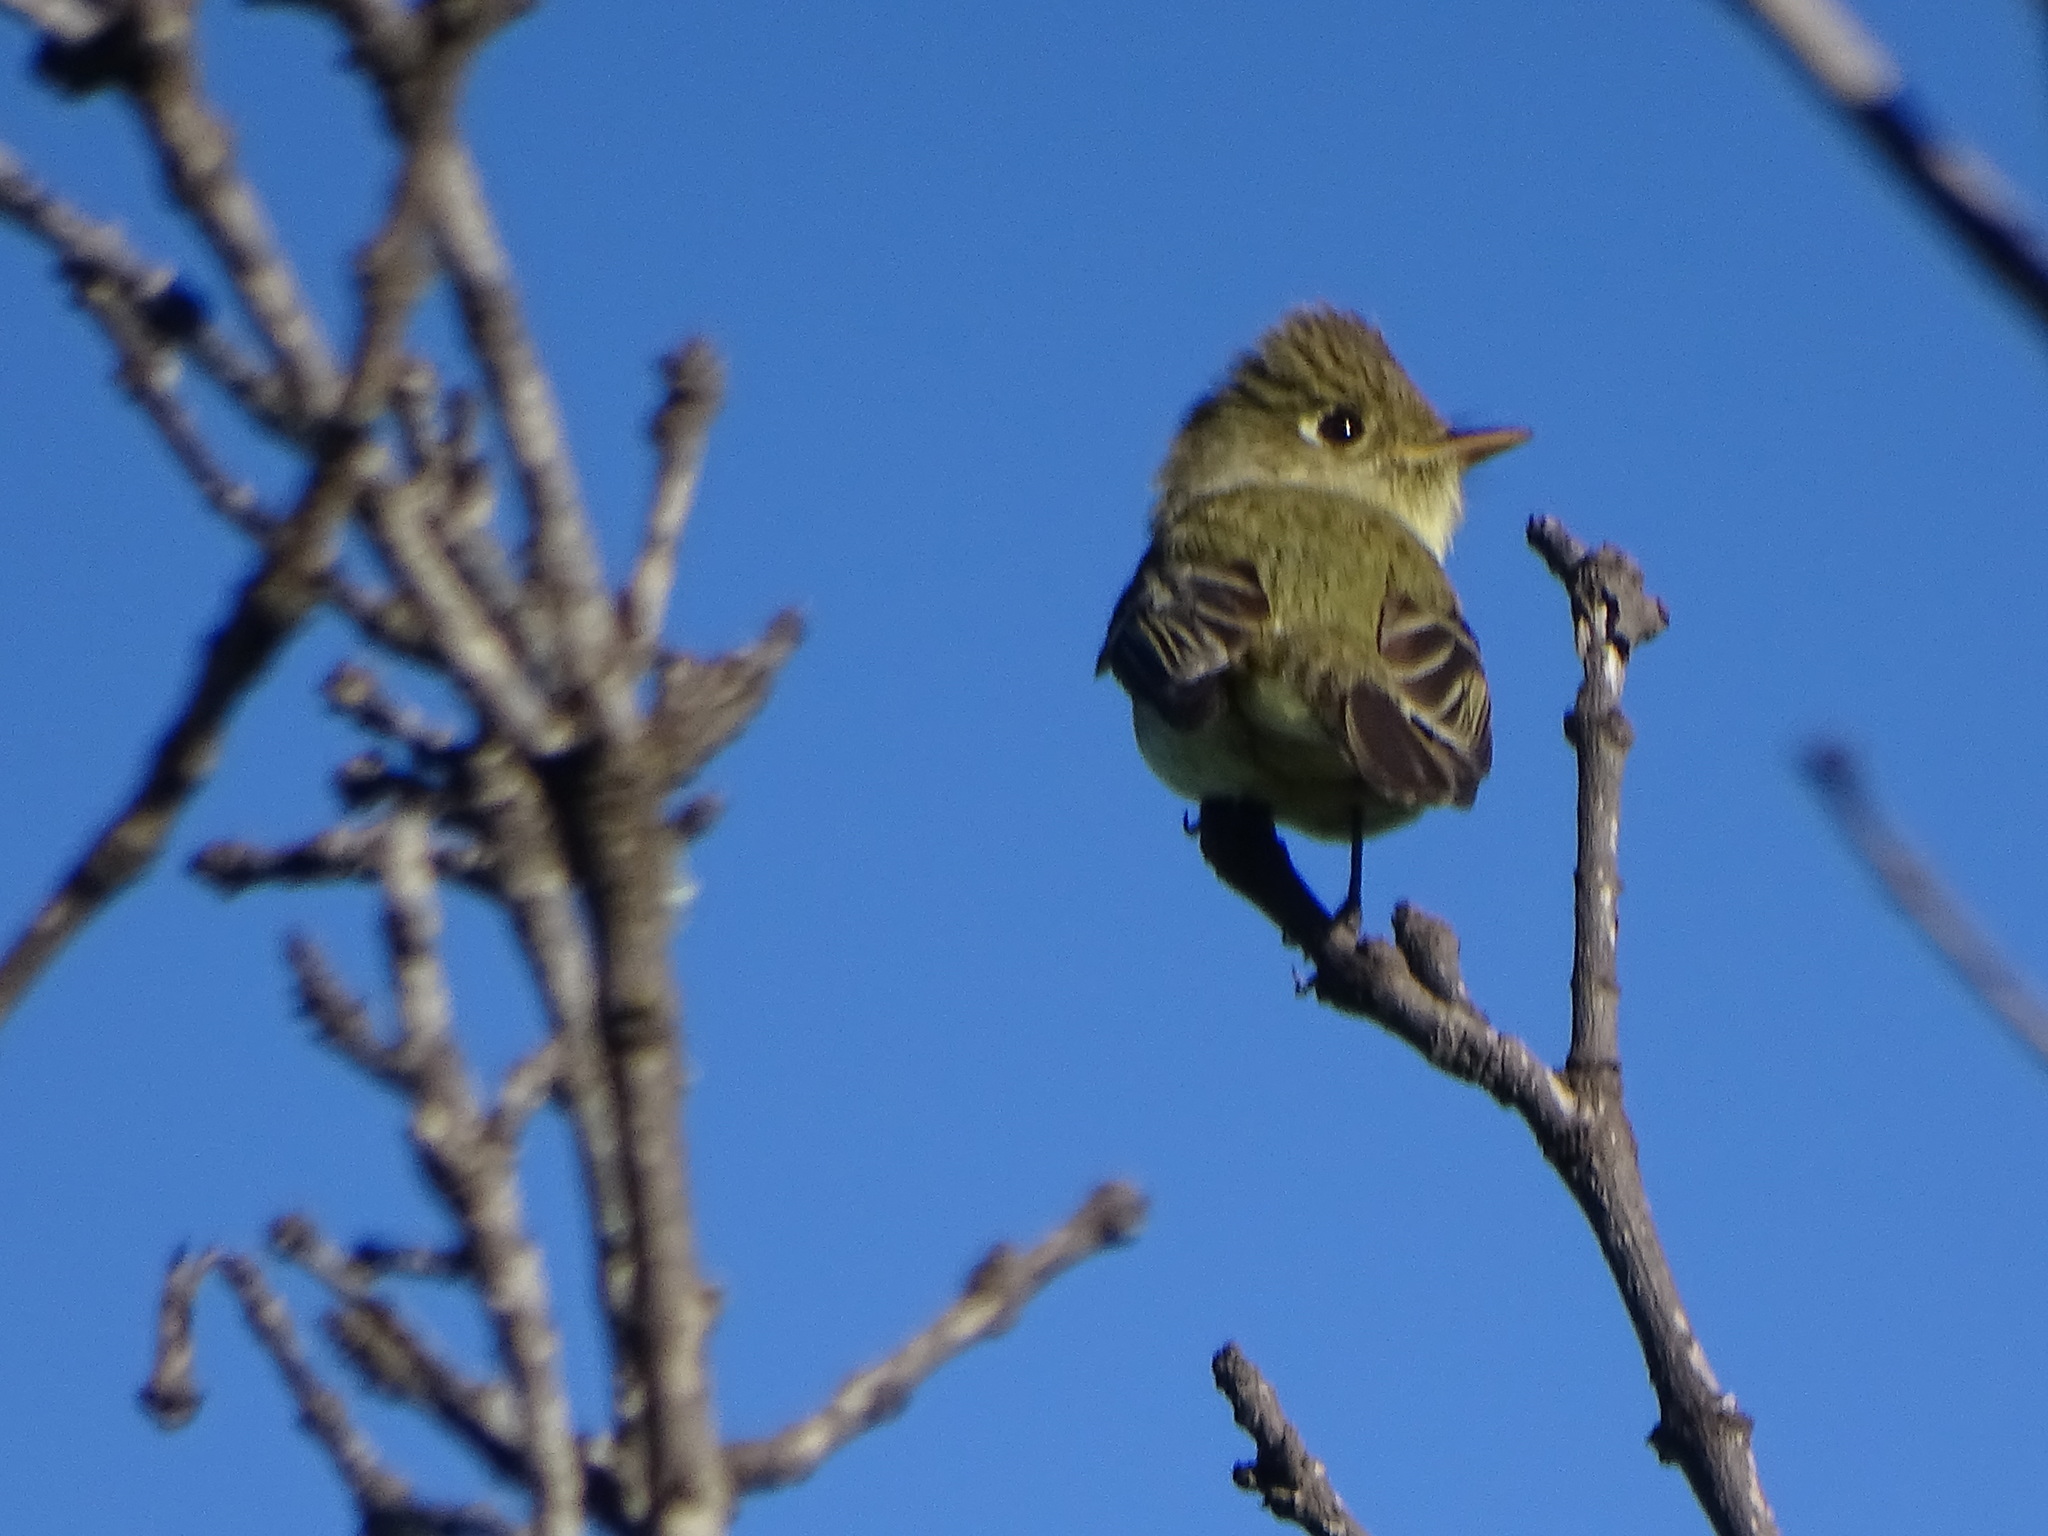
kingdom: Animalia
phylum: Chordata
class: Aves
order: Passeriformes
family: Tyrannidae
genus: Empidonax
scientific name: Empidonax difficilis
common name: Pacific-slope flycatcher
